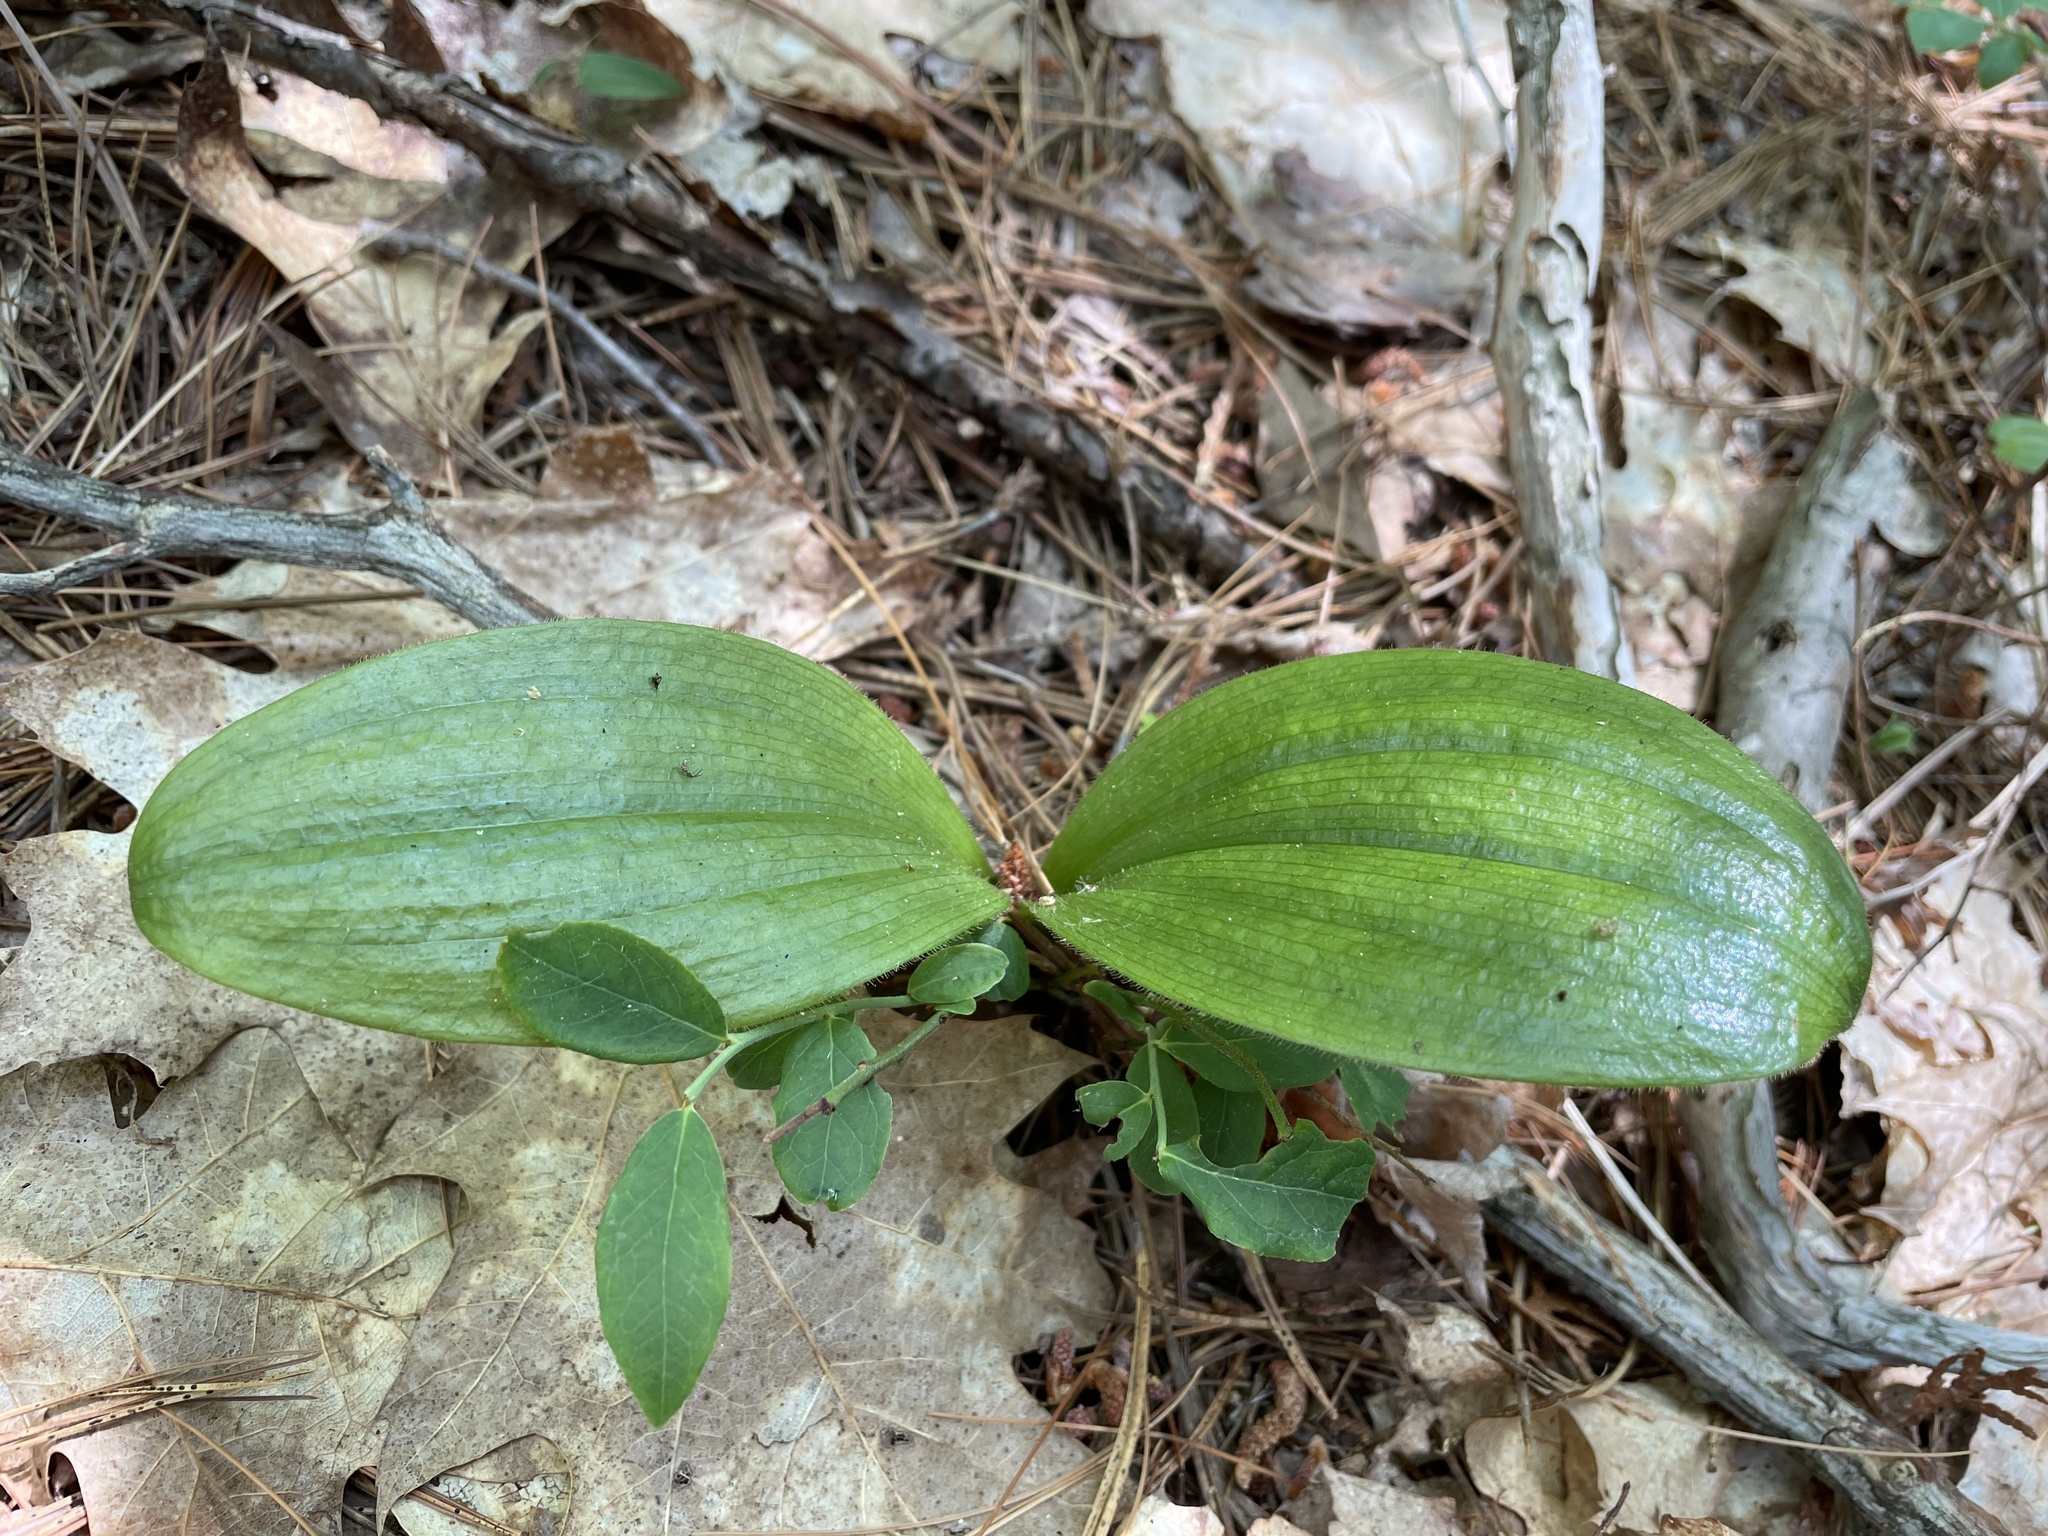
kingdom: Plantae
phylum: Tracheophyta
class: Liliopsida
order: Asparagales
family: Orchidaceae
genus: Cypripedium
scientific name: Cypripedium acaule
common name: Pink lady's-slipper
